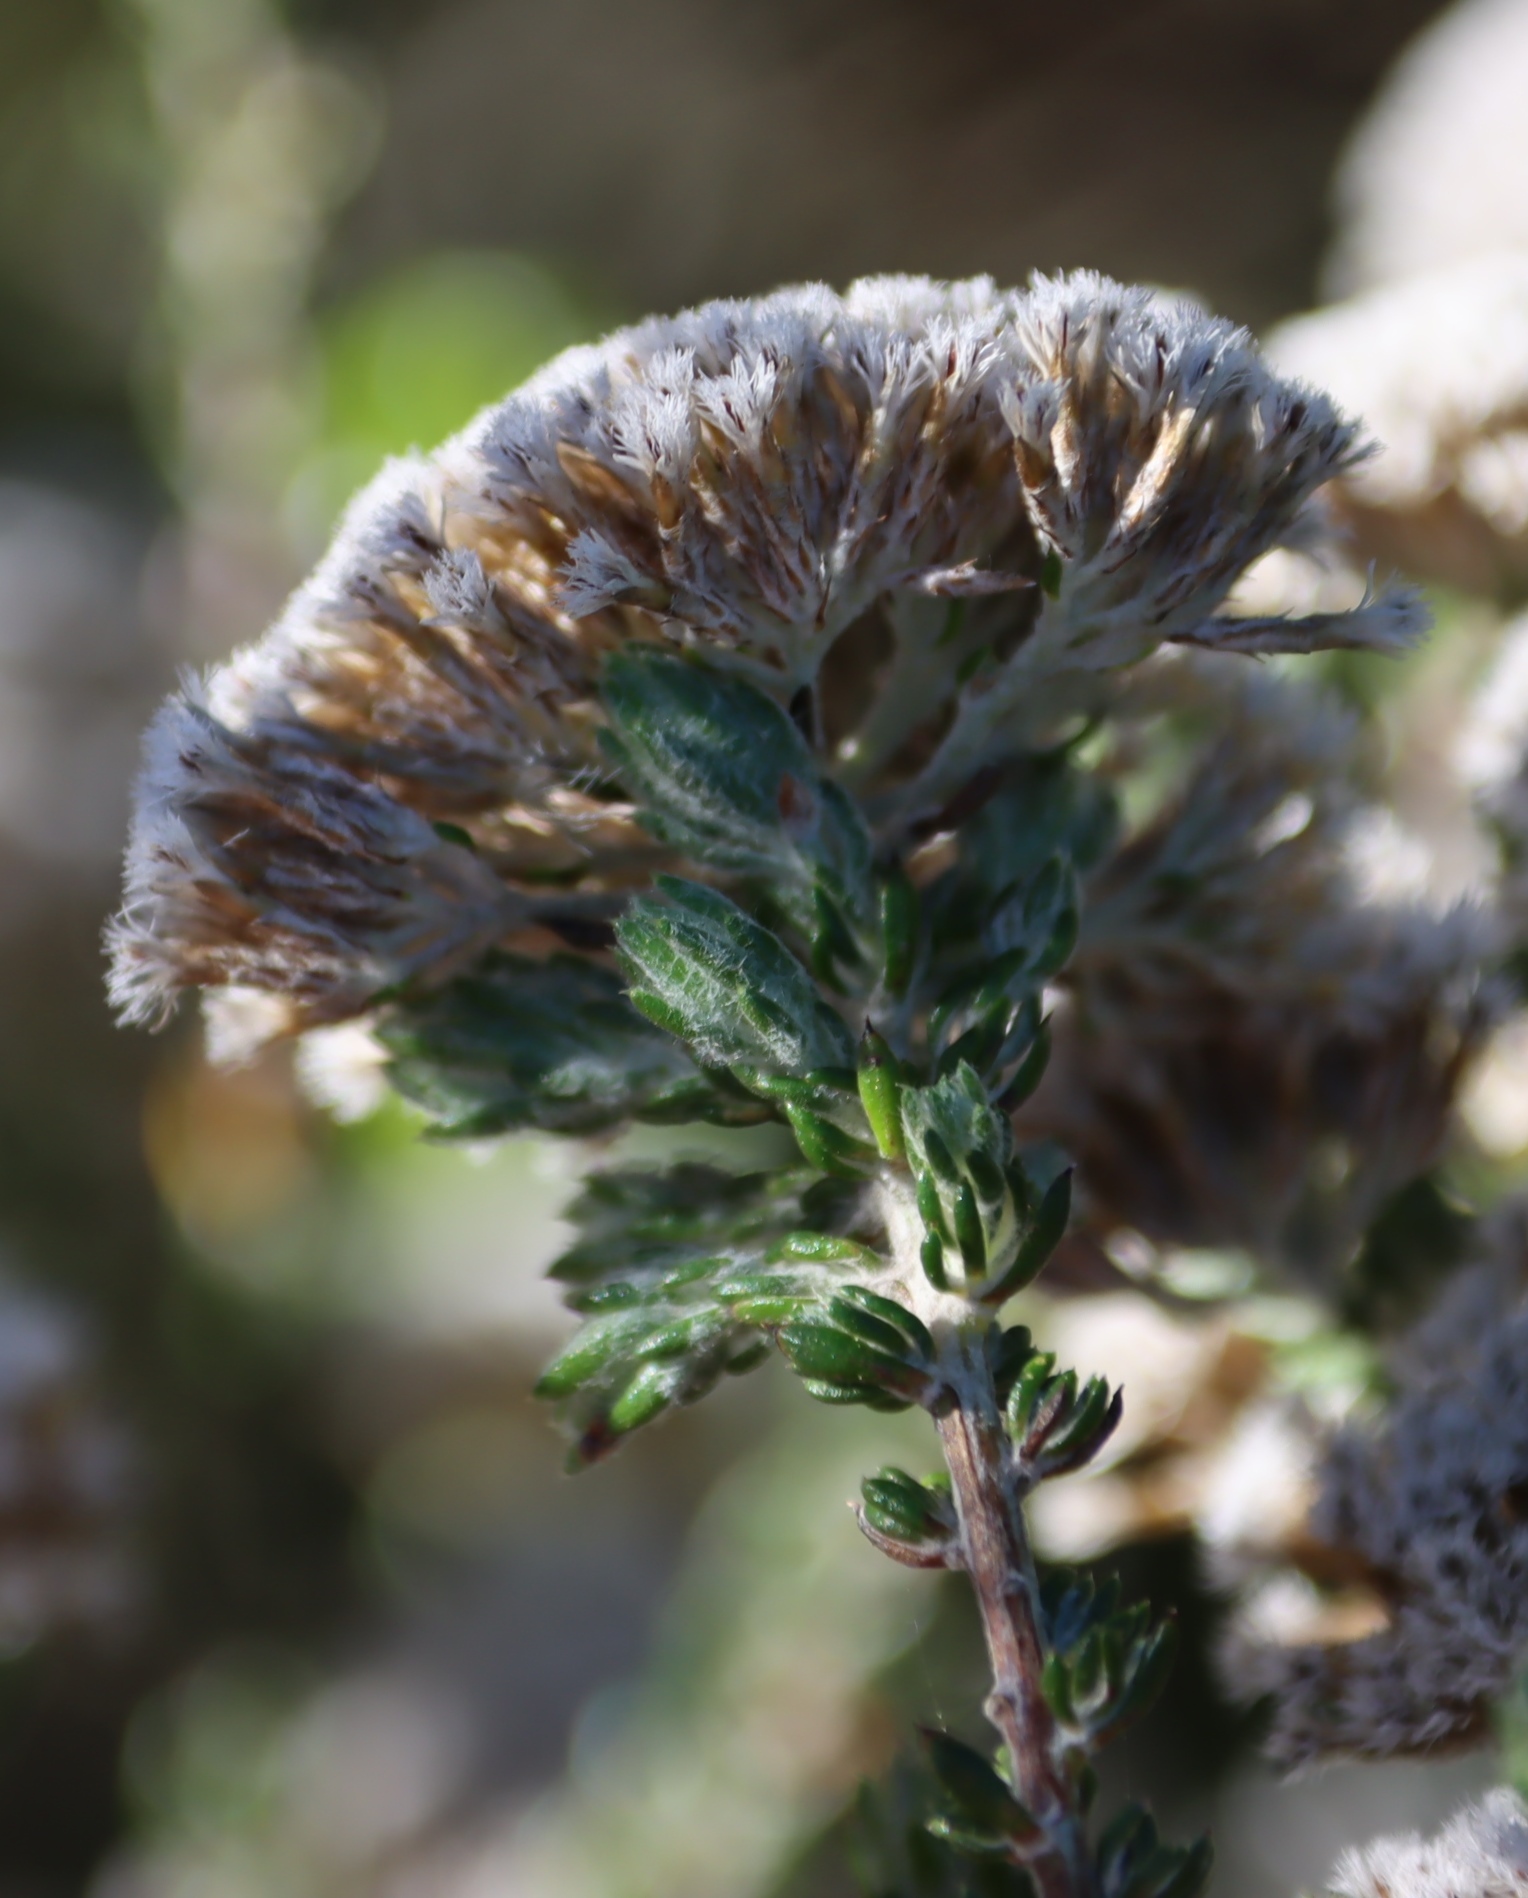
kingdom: Plantae
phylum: Tracheophyta
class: Magnoliopsida
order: Asterales
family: Asteraceae
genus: Metalasia
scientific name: Metalasia pungens
